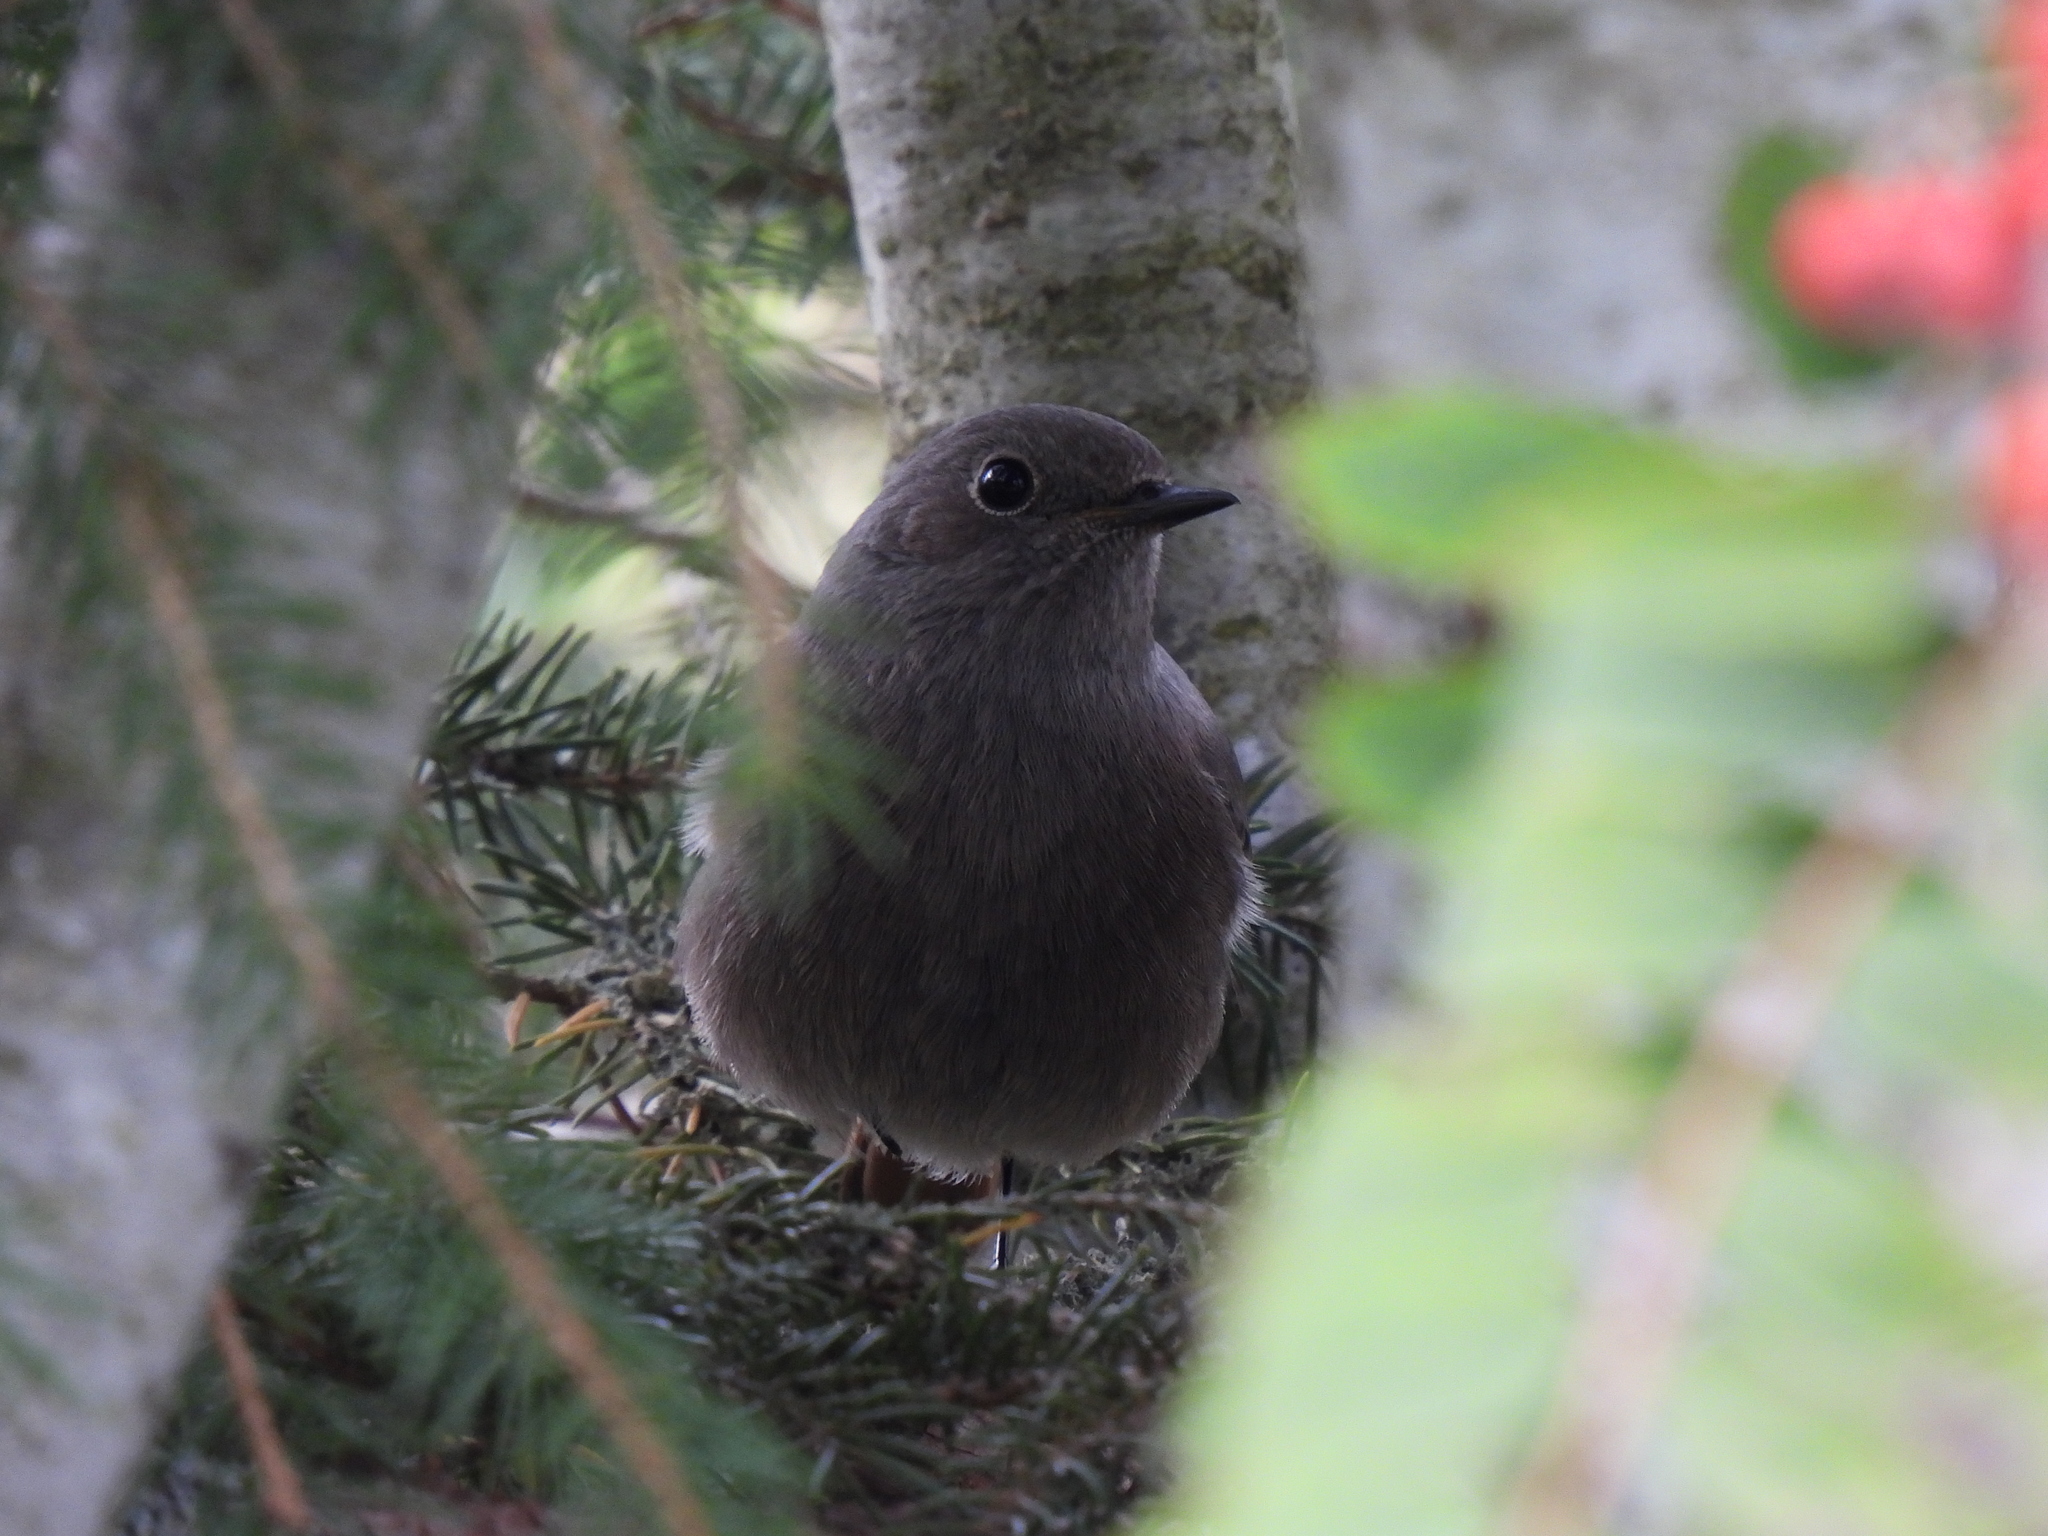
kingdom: Animalia
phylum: Chordata
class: Aves
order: Passeriformes
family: Muscicapidae
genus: Phoenicurus
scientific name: Phoenicurus ochruros
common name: Black redstart
